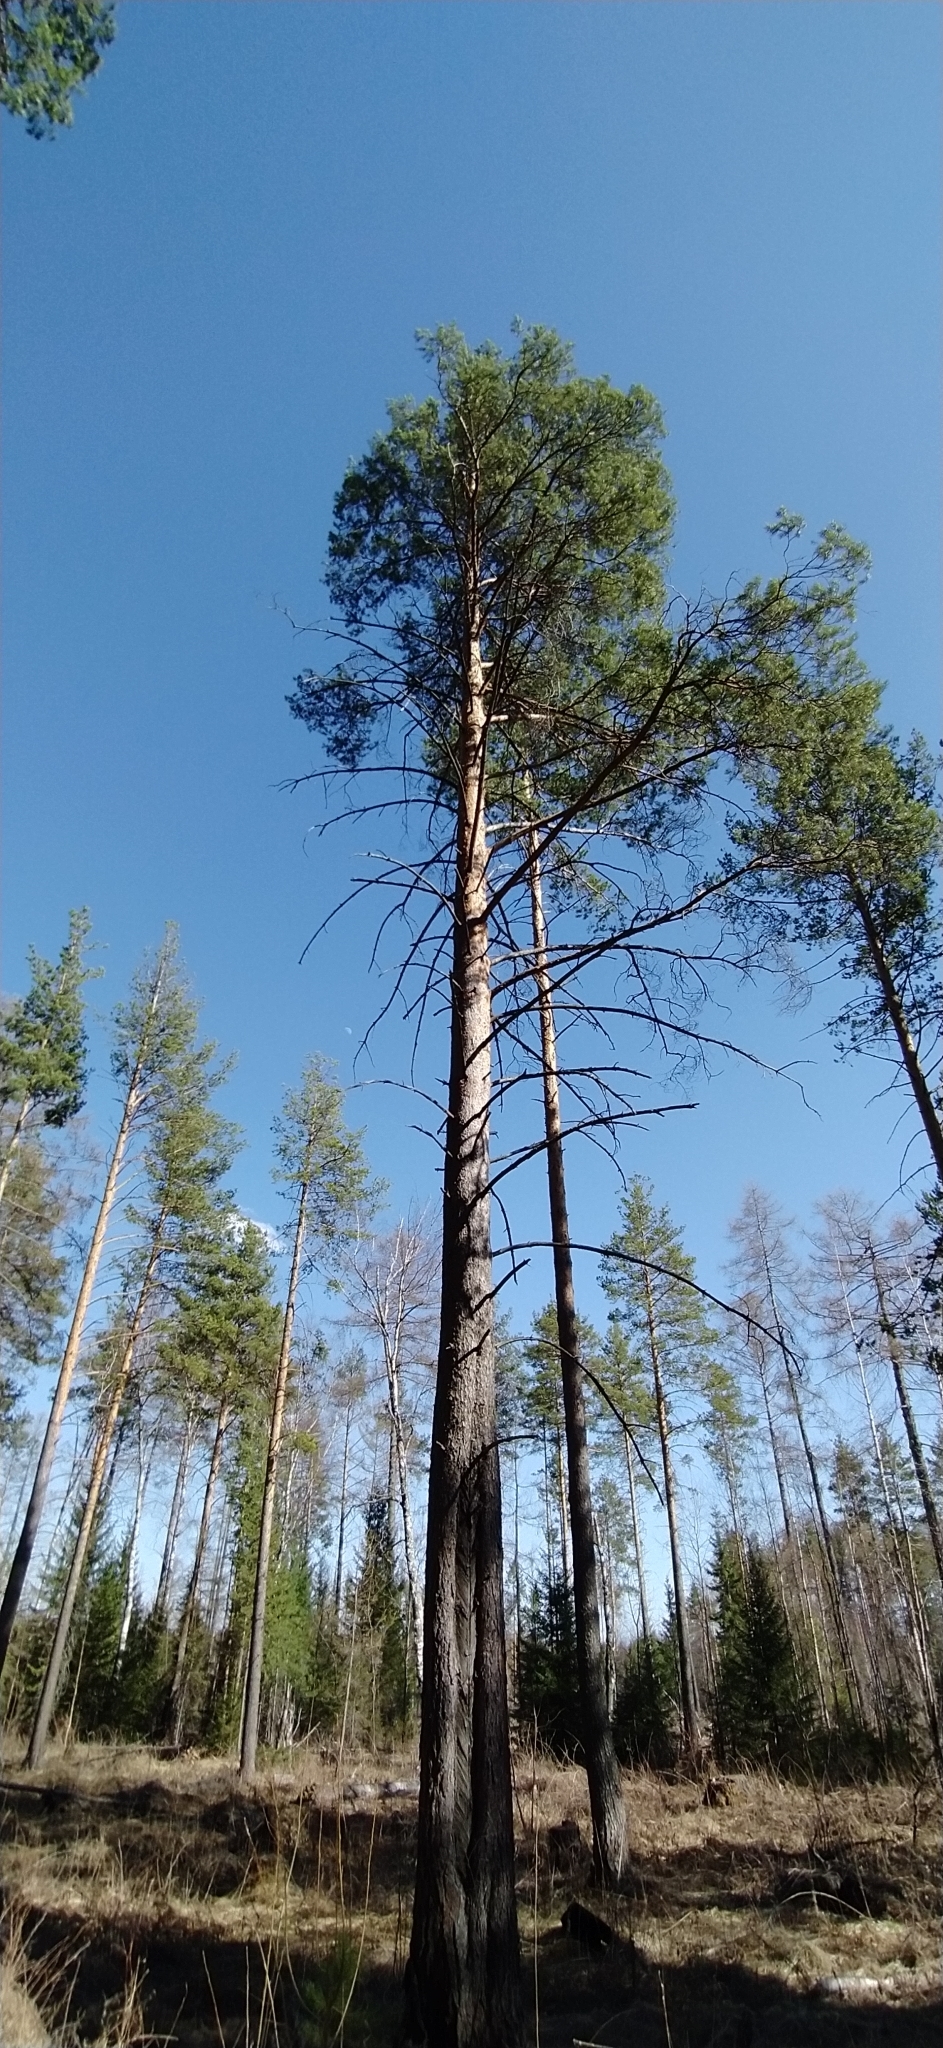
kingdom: Plantae
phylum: Tracheophyta
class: Pinopsida
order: Pinales
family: Pinaceae
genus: Pinus
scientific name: Pinus sylvestris
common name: Scots pine
